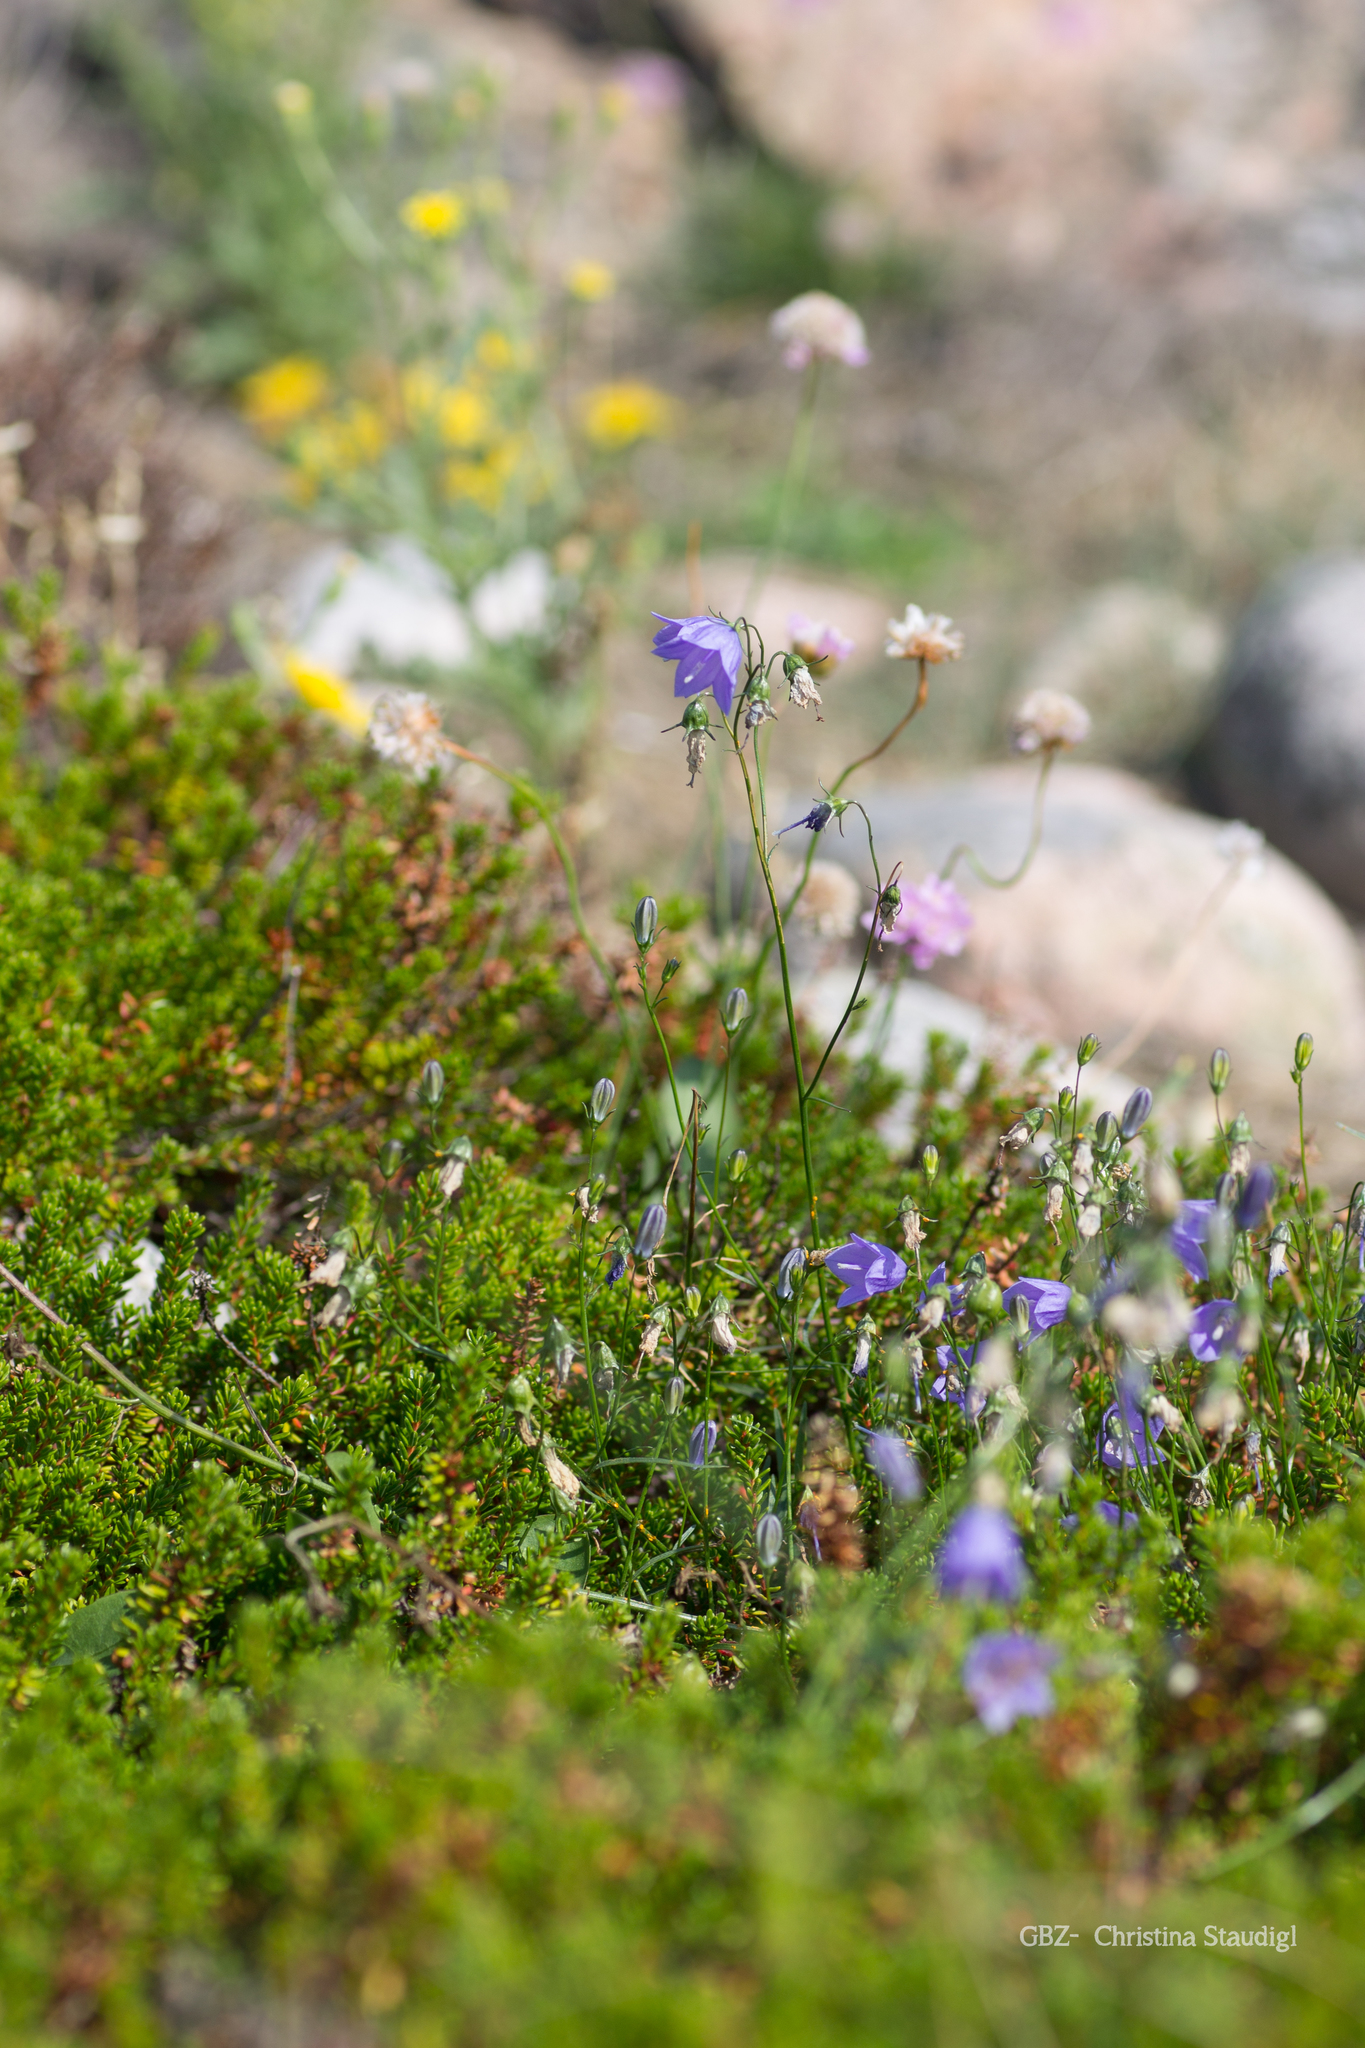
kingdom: Plantae
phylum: Tracheophyta
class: Magnoliopsida
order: Ericales
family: Ericaceae
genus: Empetrum
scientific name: Empetrum nigrum
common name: Black crowberry
